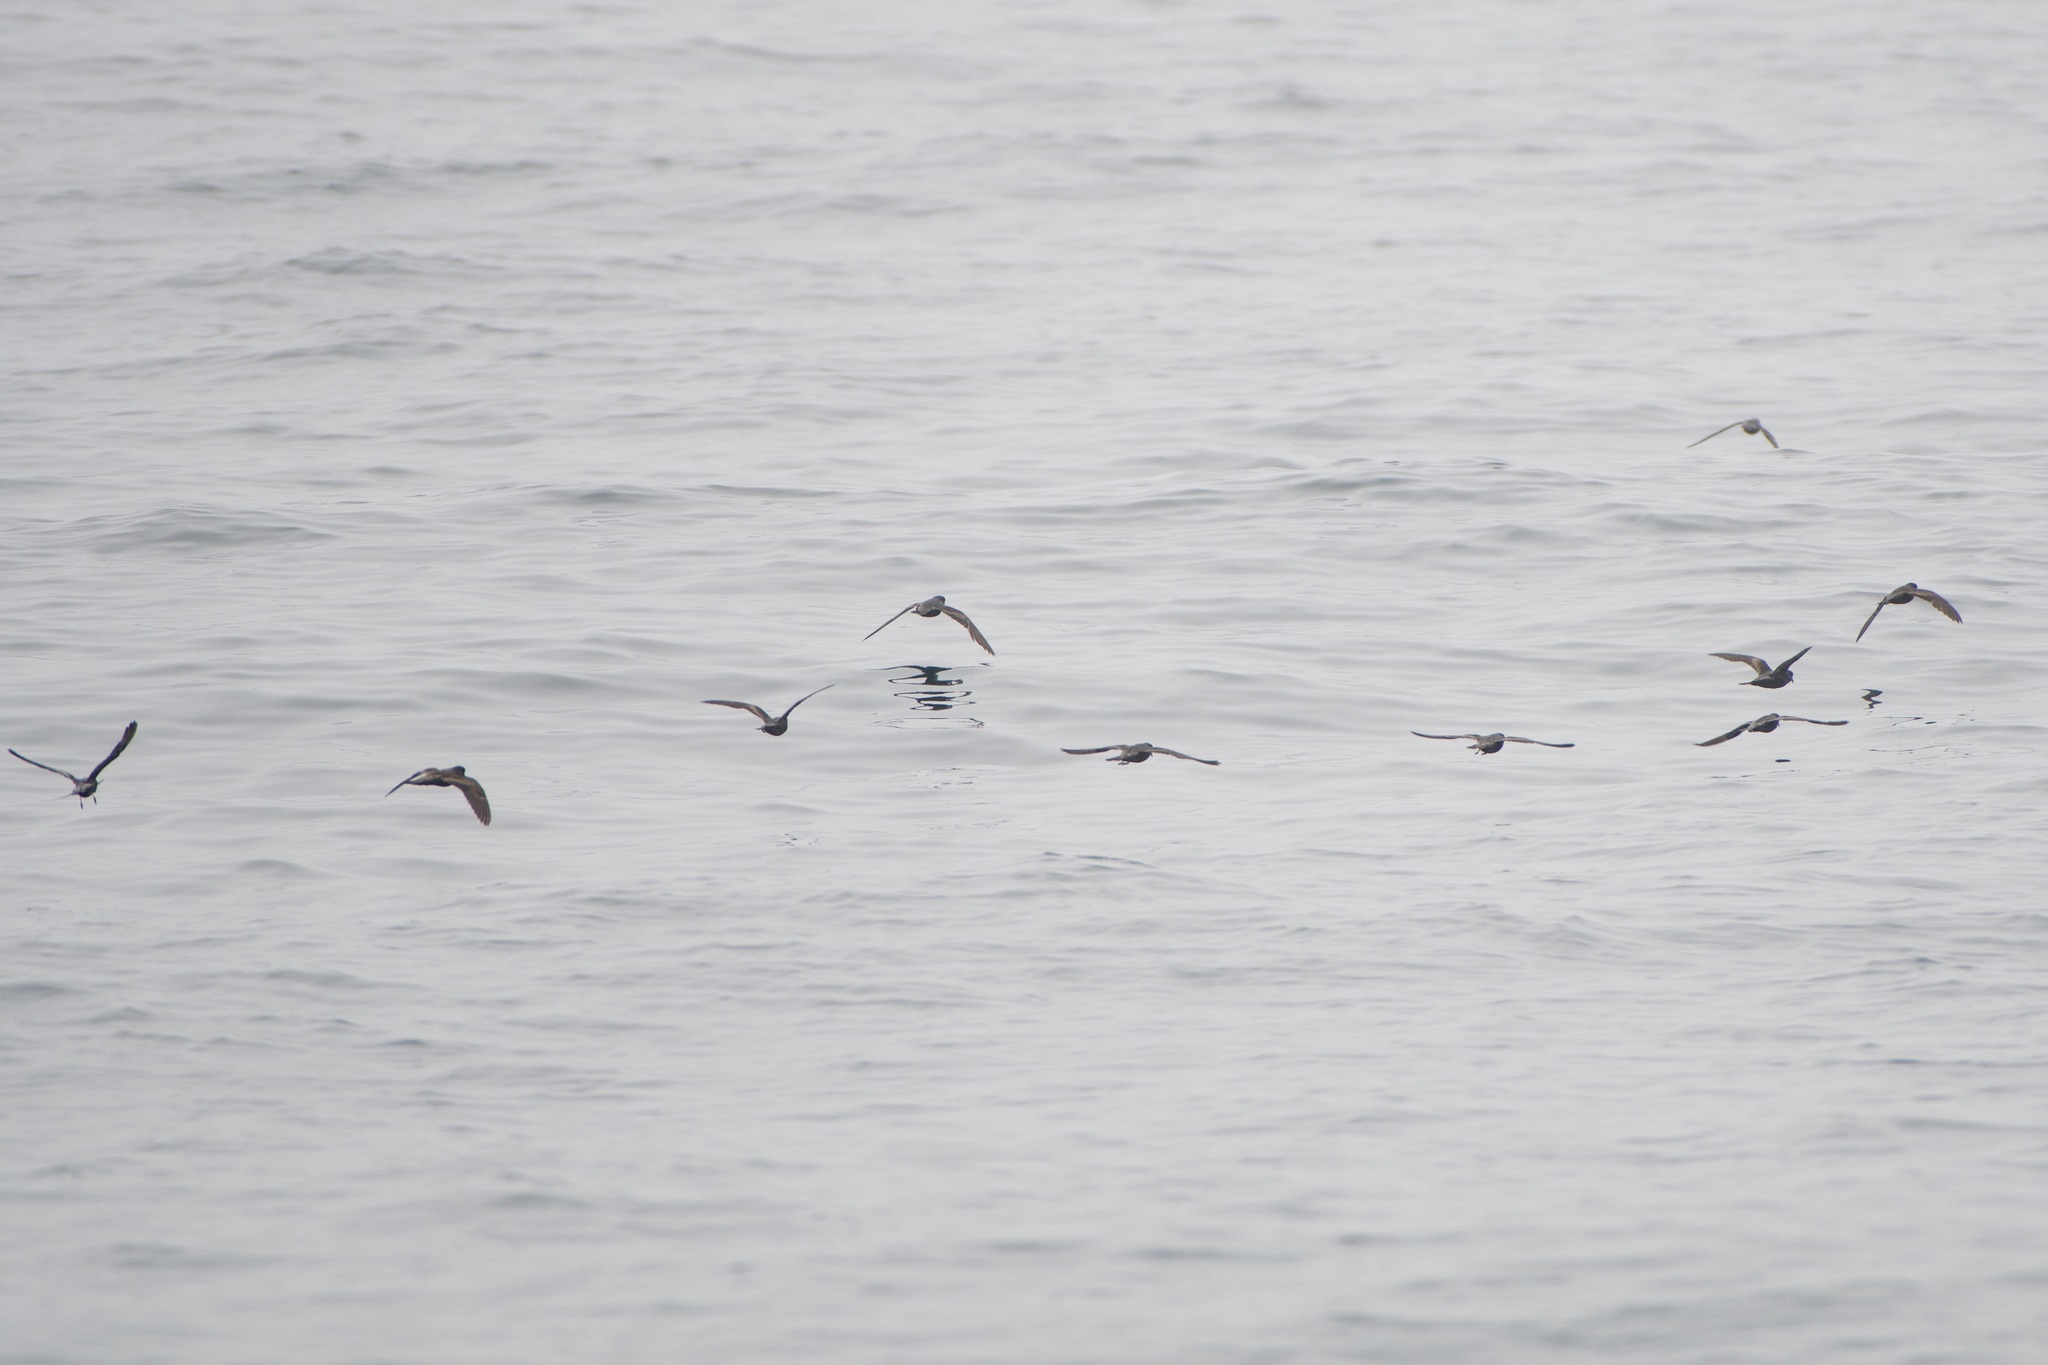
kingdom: Animalia
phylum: Chordata
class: Aves
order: Procellariiformes
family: Hydrobatidae
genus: Hydrobates
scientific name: Hydrobates homochroa
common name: Ashy storm petrel
